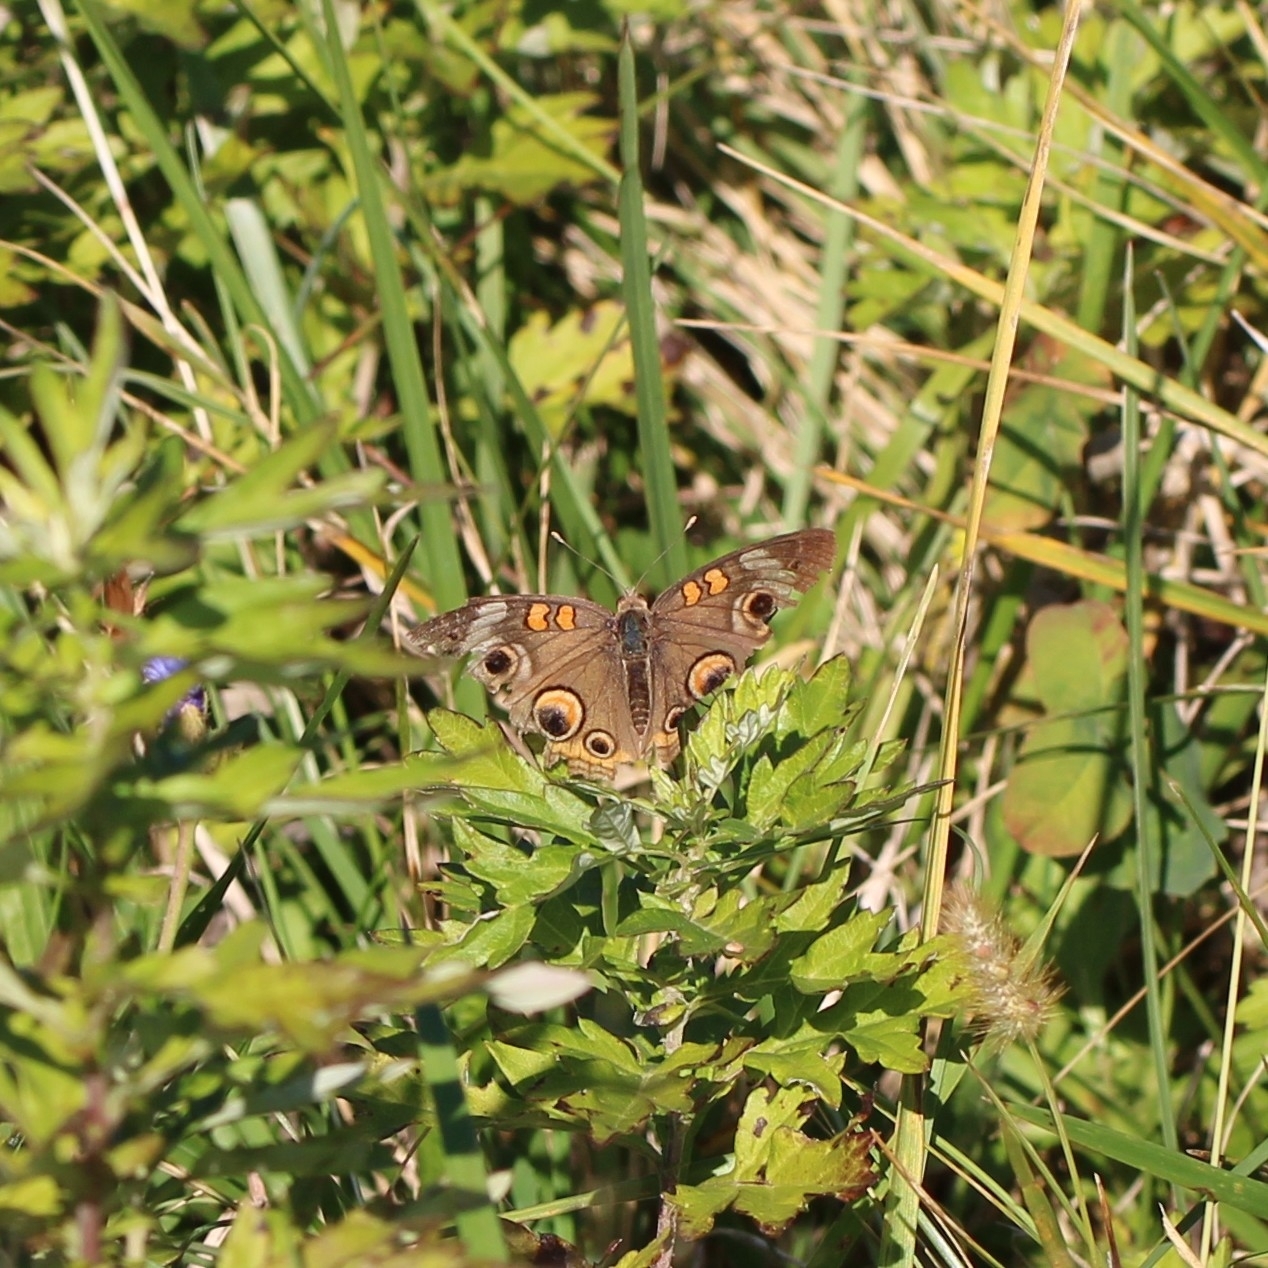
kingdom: Animalia
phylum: Arthropoda
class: Insecta
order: Lepidoptera
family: Nymphalidae
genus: Junonia
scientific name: Junonia coenia
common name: Common buckeye
